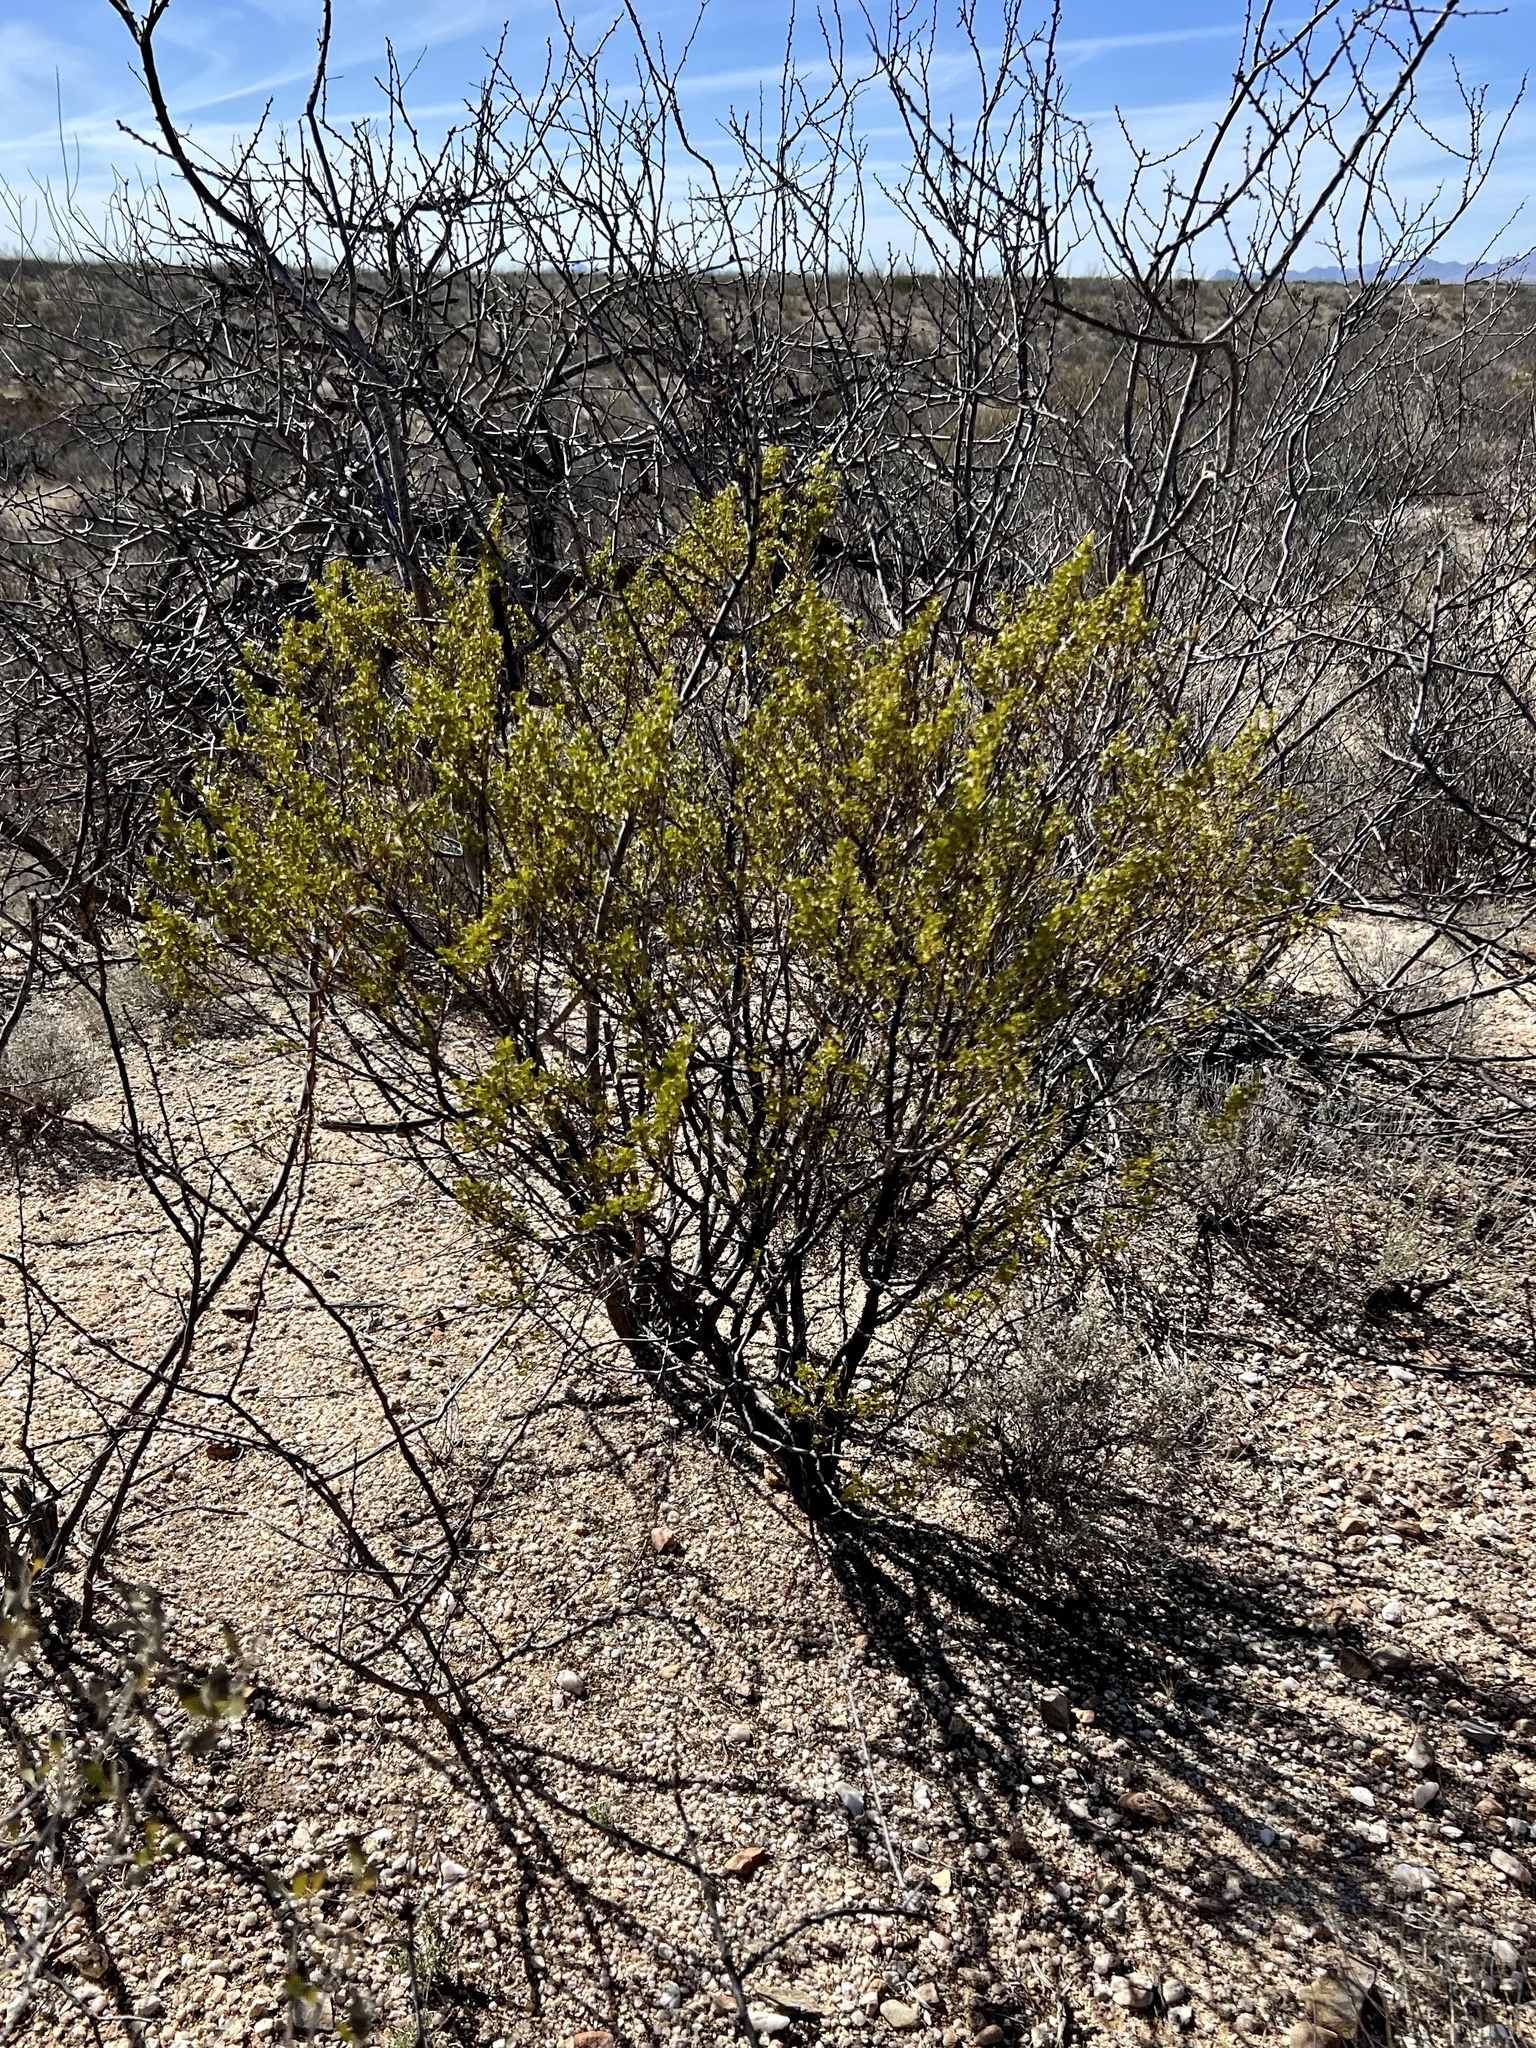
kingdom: Plantae
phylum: Tracheophyta
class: Magnoliopsida
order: Zygophyllales
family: Zygophyllaceae
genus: Larrea
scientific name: Larrea tridentata
